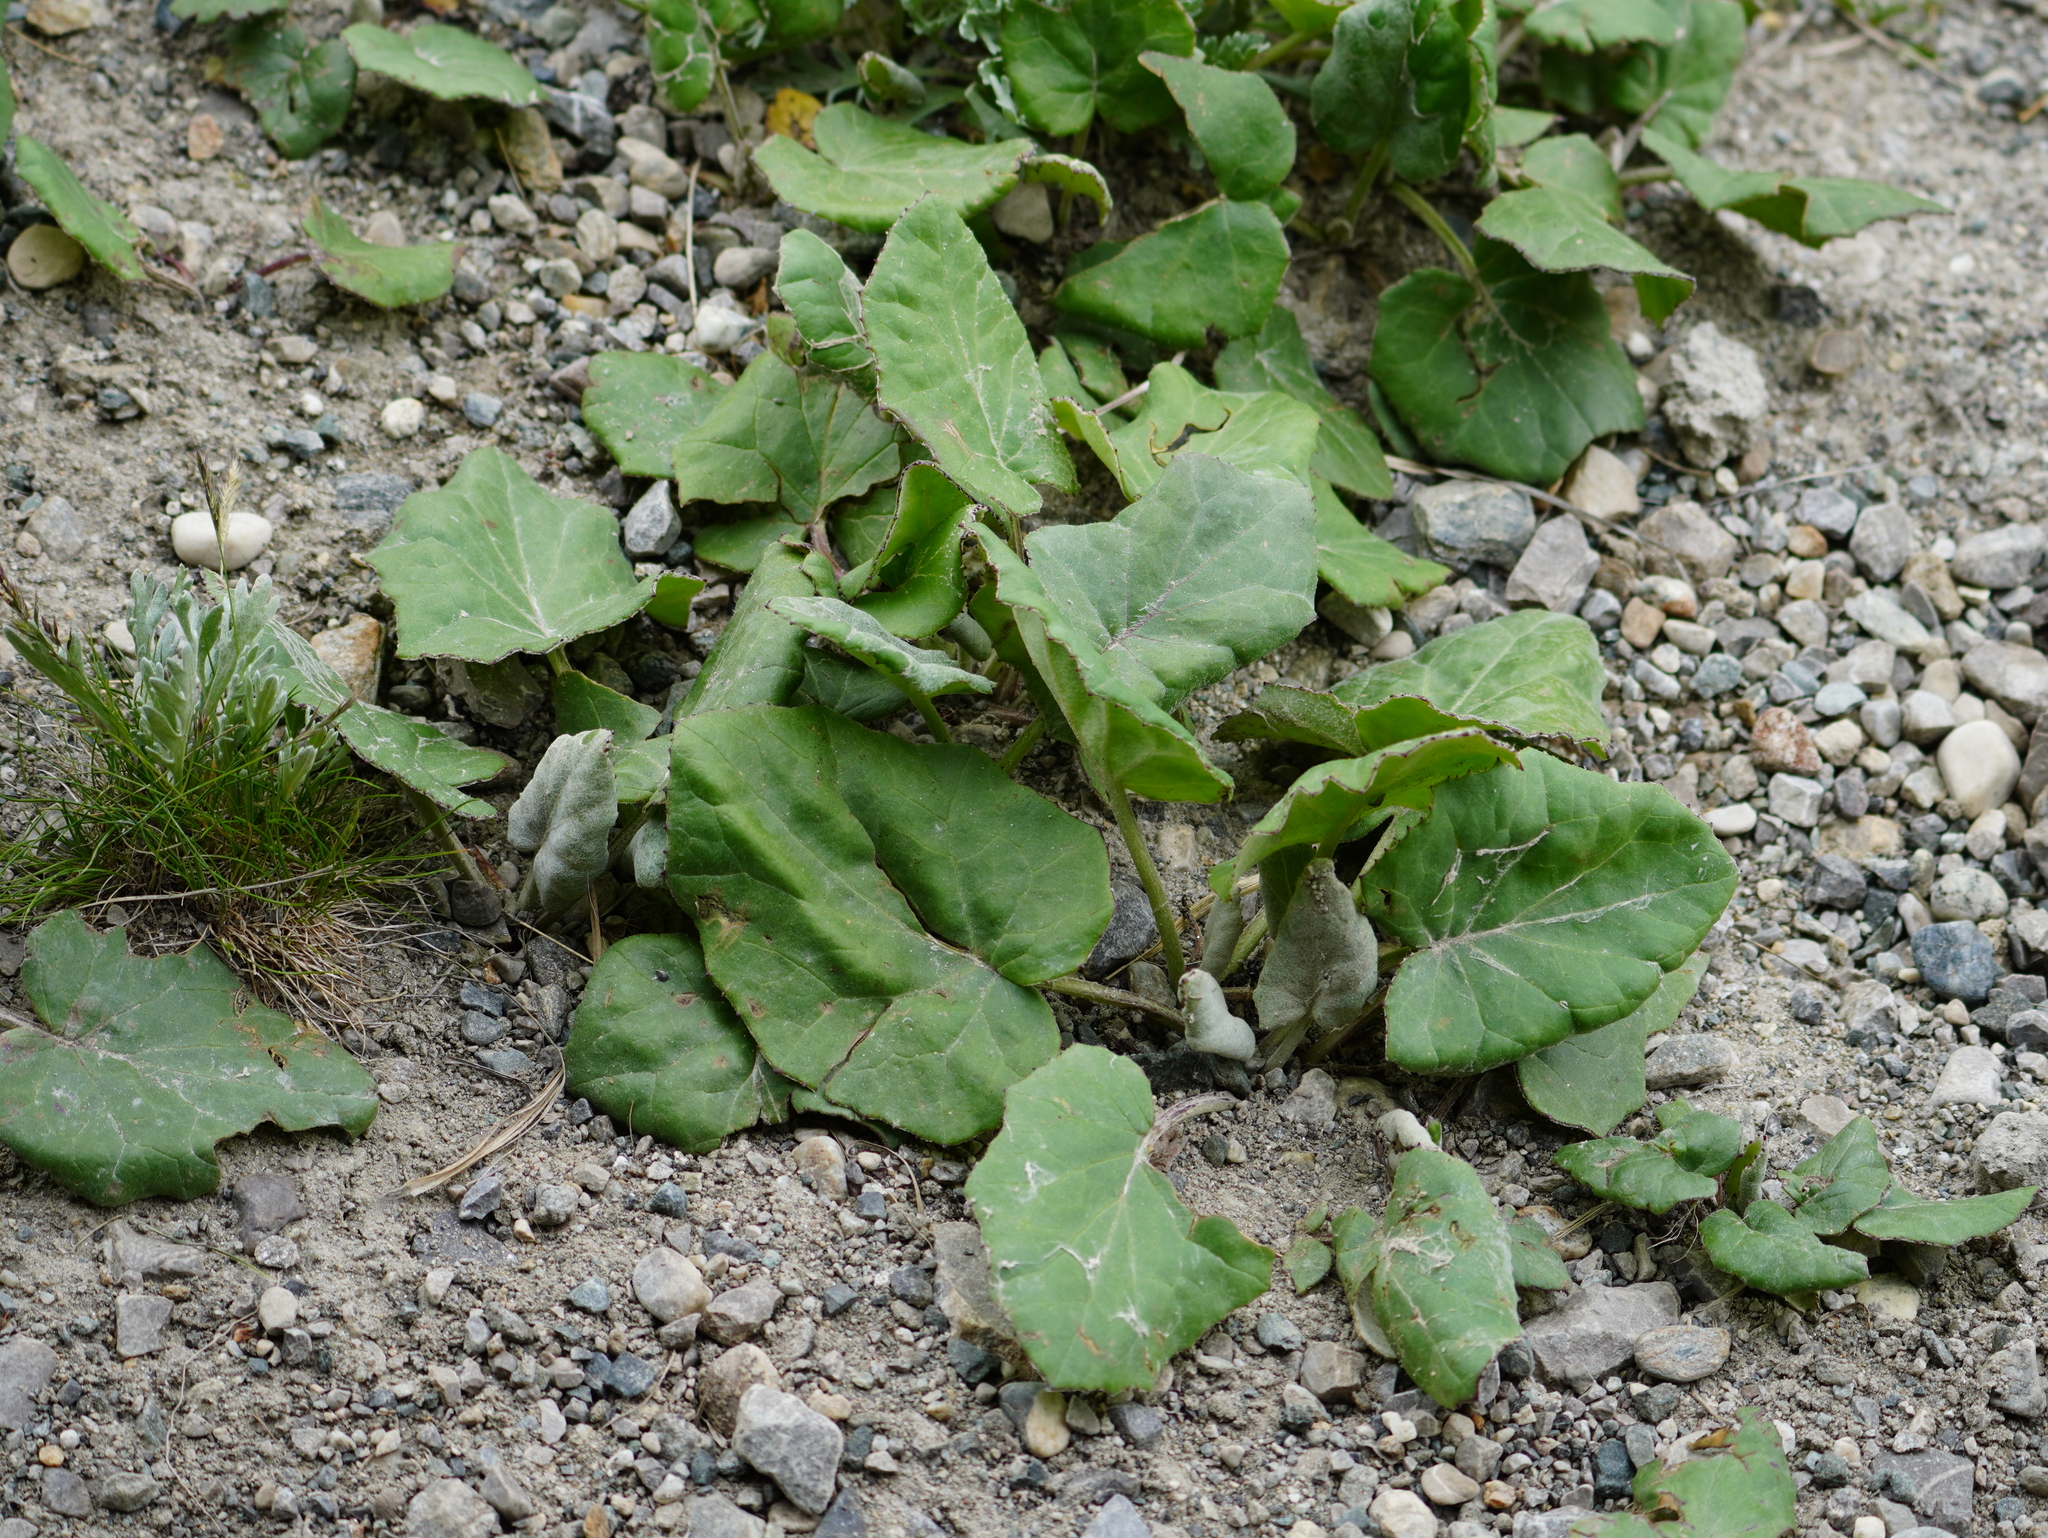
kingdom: Plantae
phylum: Tracheophyta
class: Magnoliopsida
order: Asterales
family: Asteraceae
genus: Tussilago
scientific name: Tussilago farfara
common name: Coltsfoot
